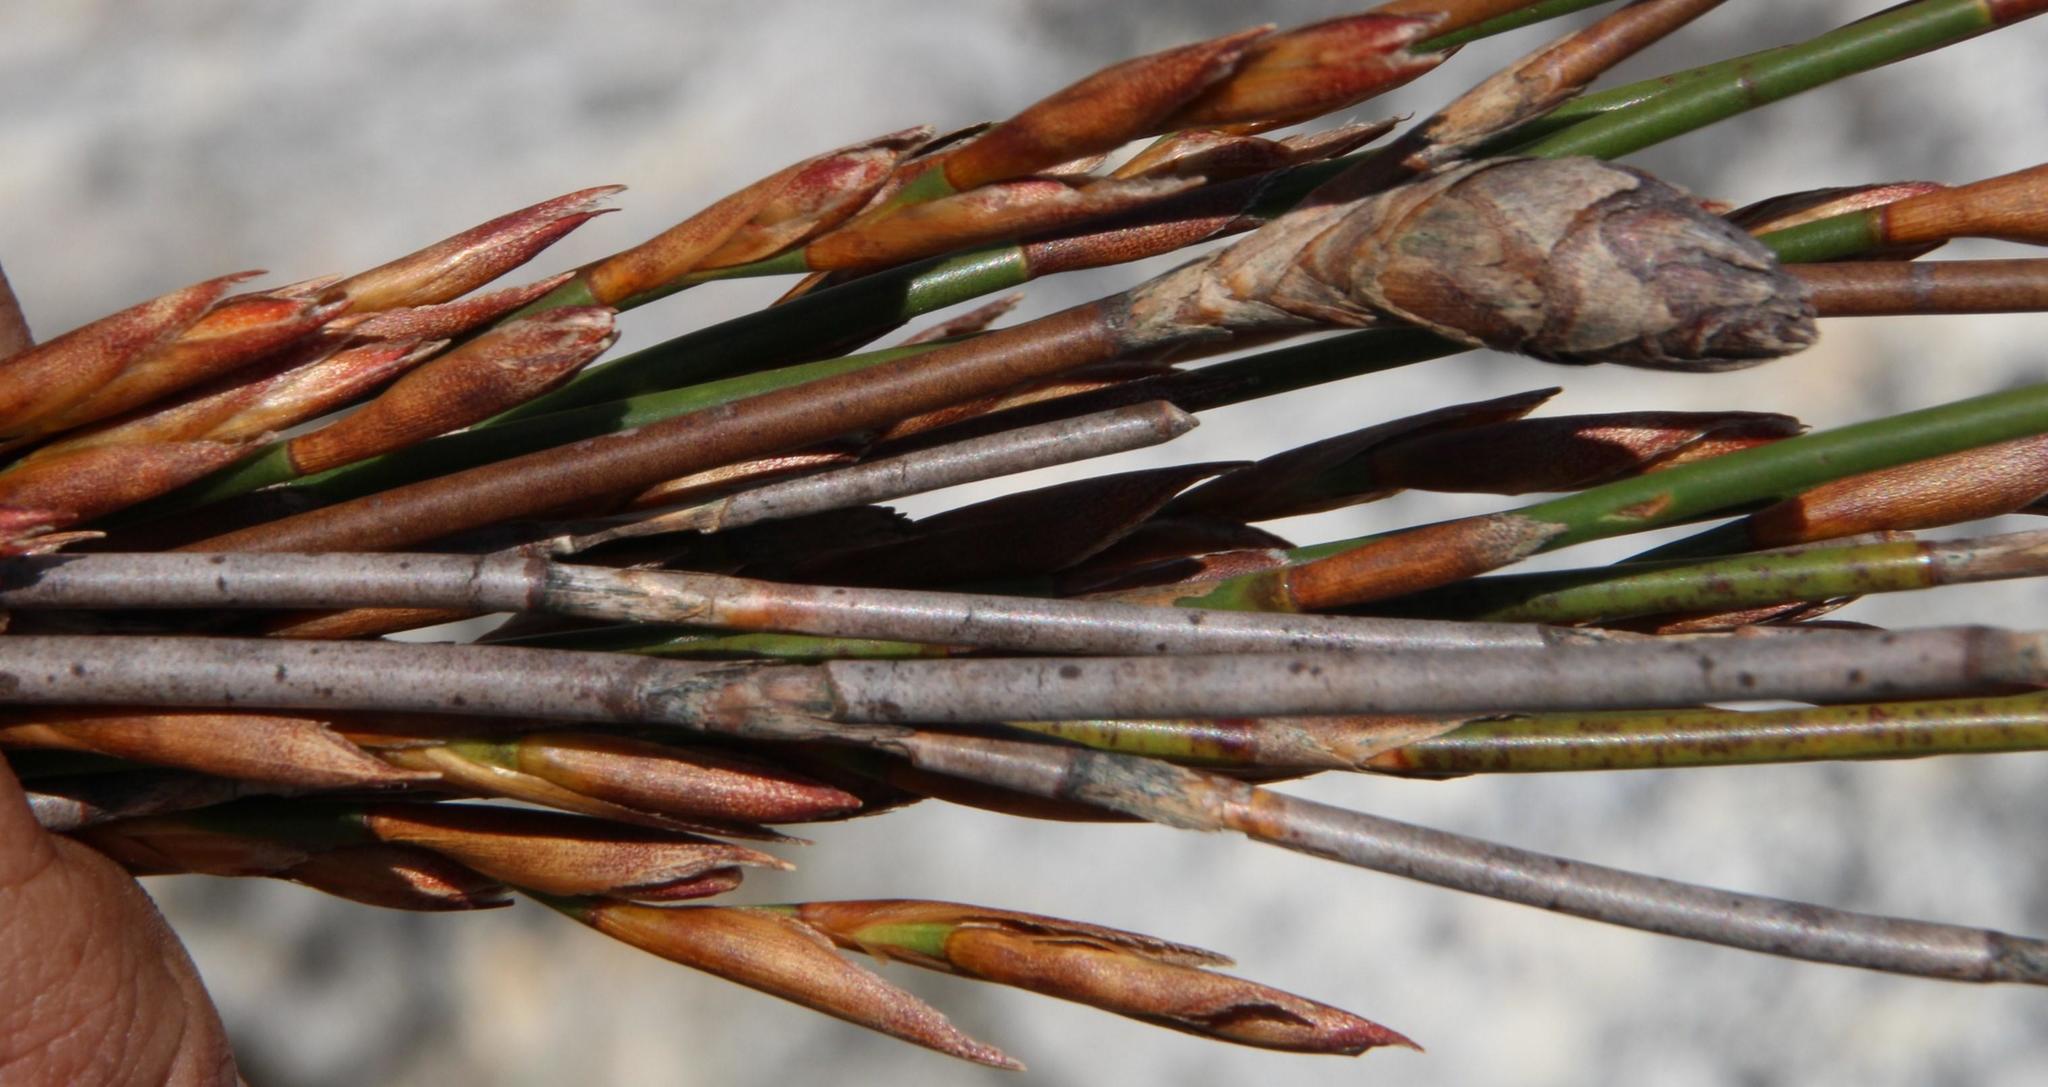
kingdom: Plantae
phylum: Tracheophyta
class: Liliopsida
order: Poales
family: Restionaceae
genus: Restio
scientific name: Restio dispar
